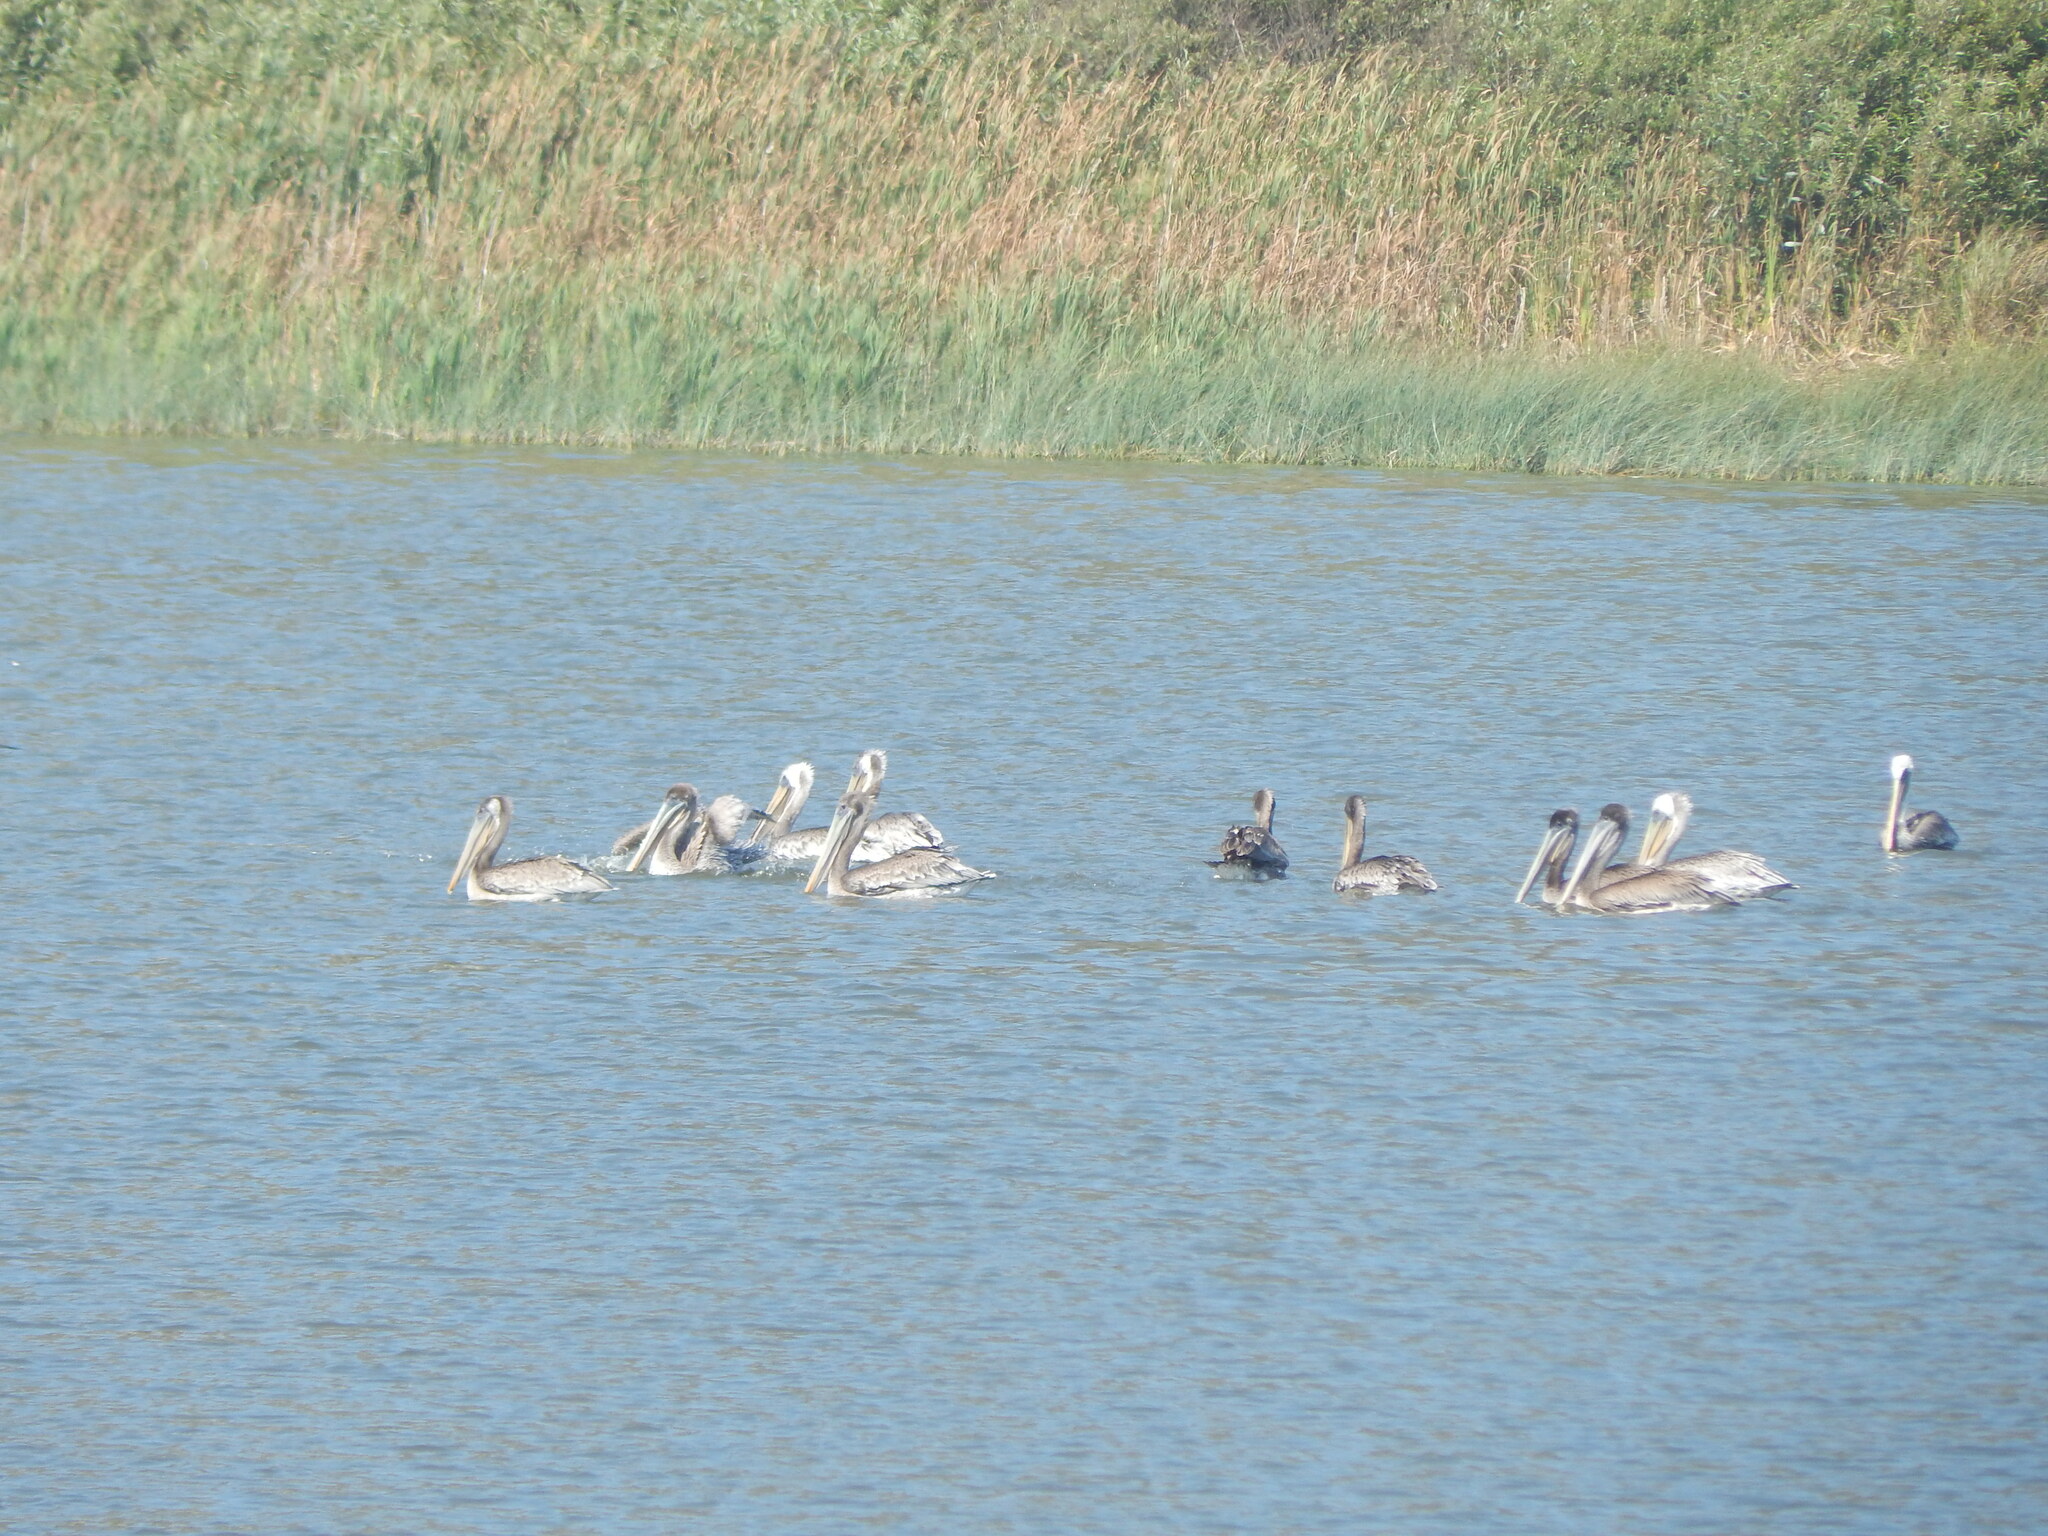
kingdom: Animalia
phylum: Chordata
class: Aves
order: Pelecaniformes
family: Pelecanidae
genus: Pelecanus
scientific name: Pelecanus occidentalis
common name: Brown pelican
